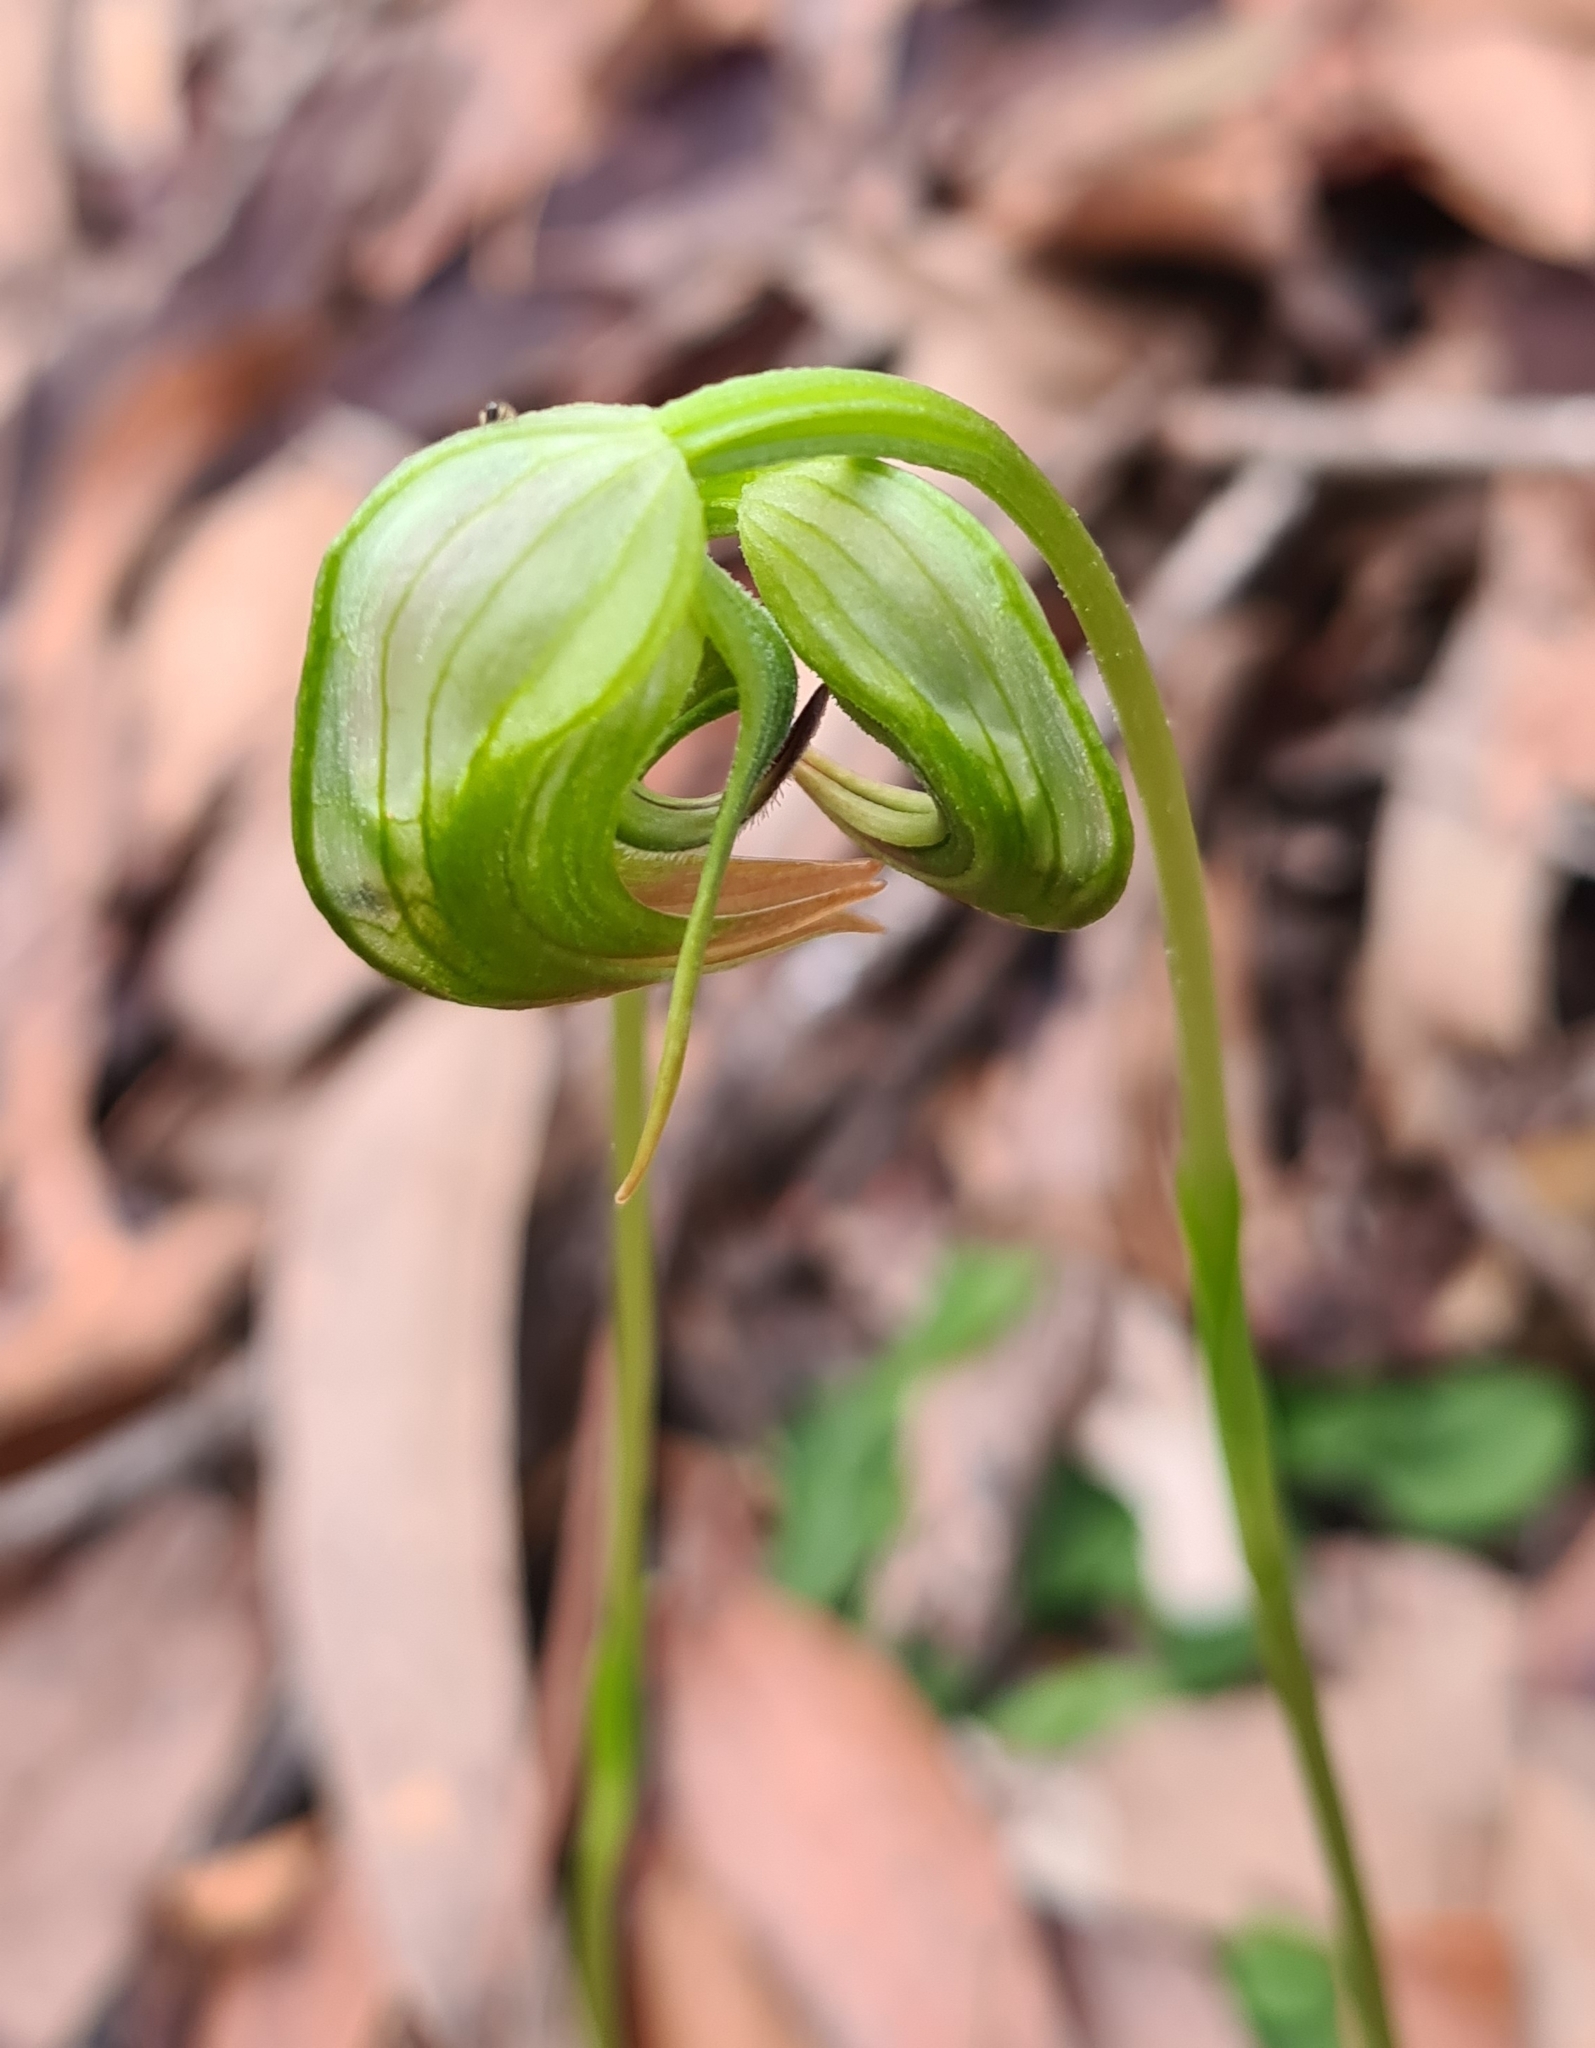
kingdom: Plantae
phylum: Tracheophyta
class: Liliopsida
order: Asparagales
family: Orchidaceae
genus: Pterostylis
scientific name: Pterostylis nutans
